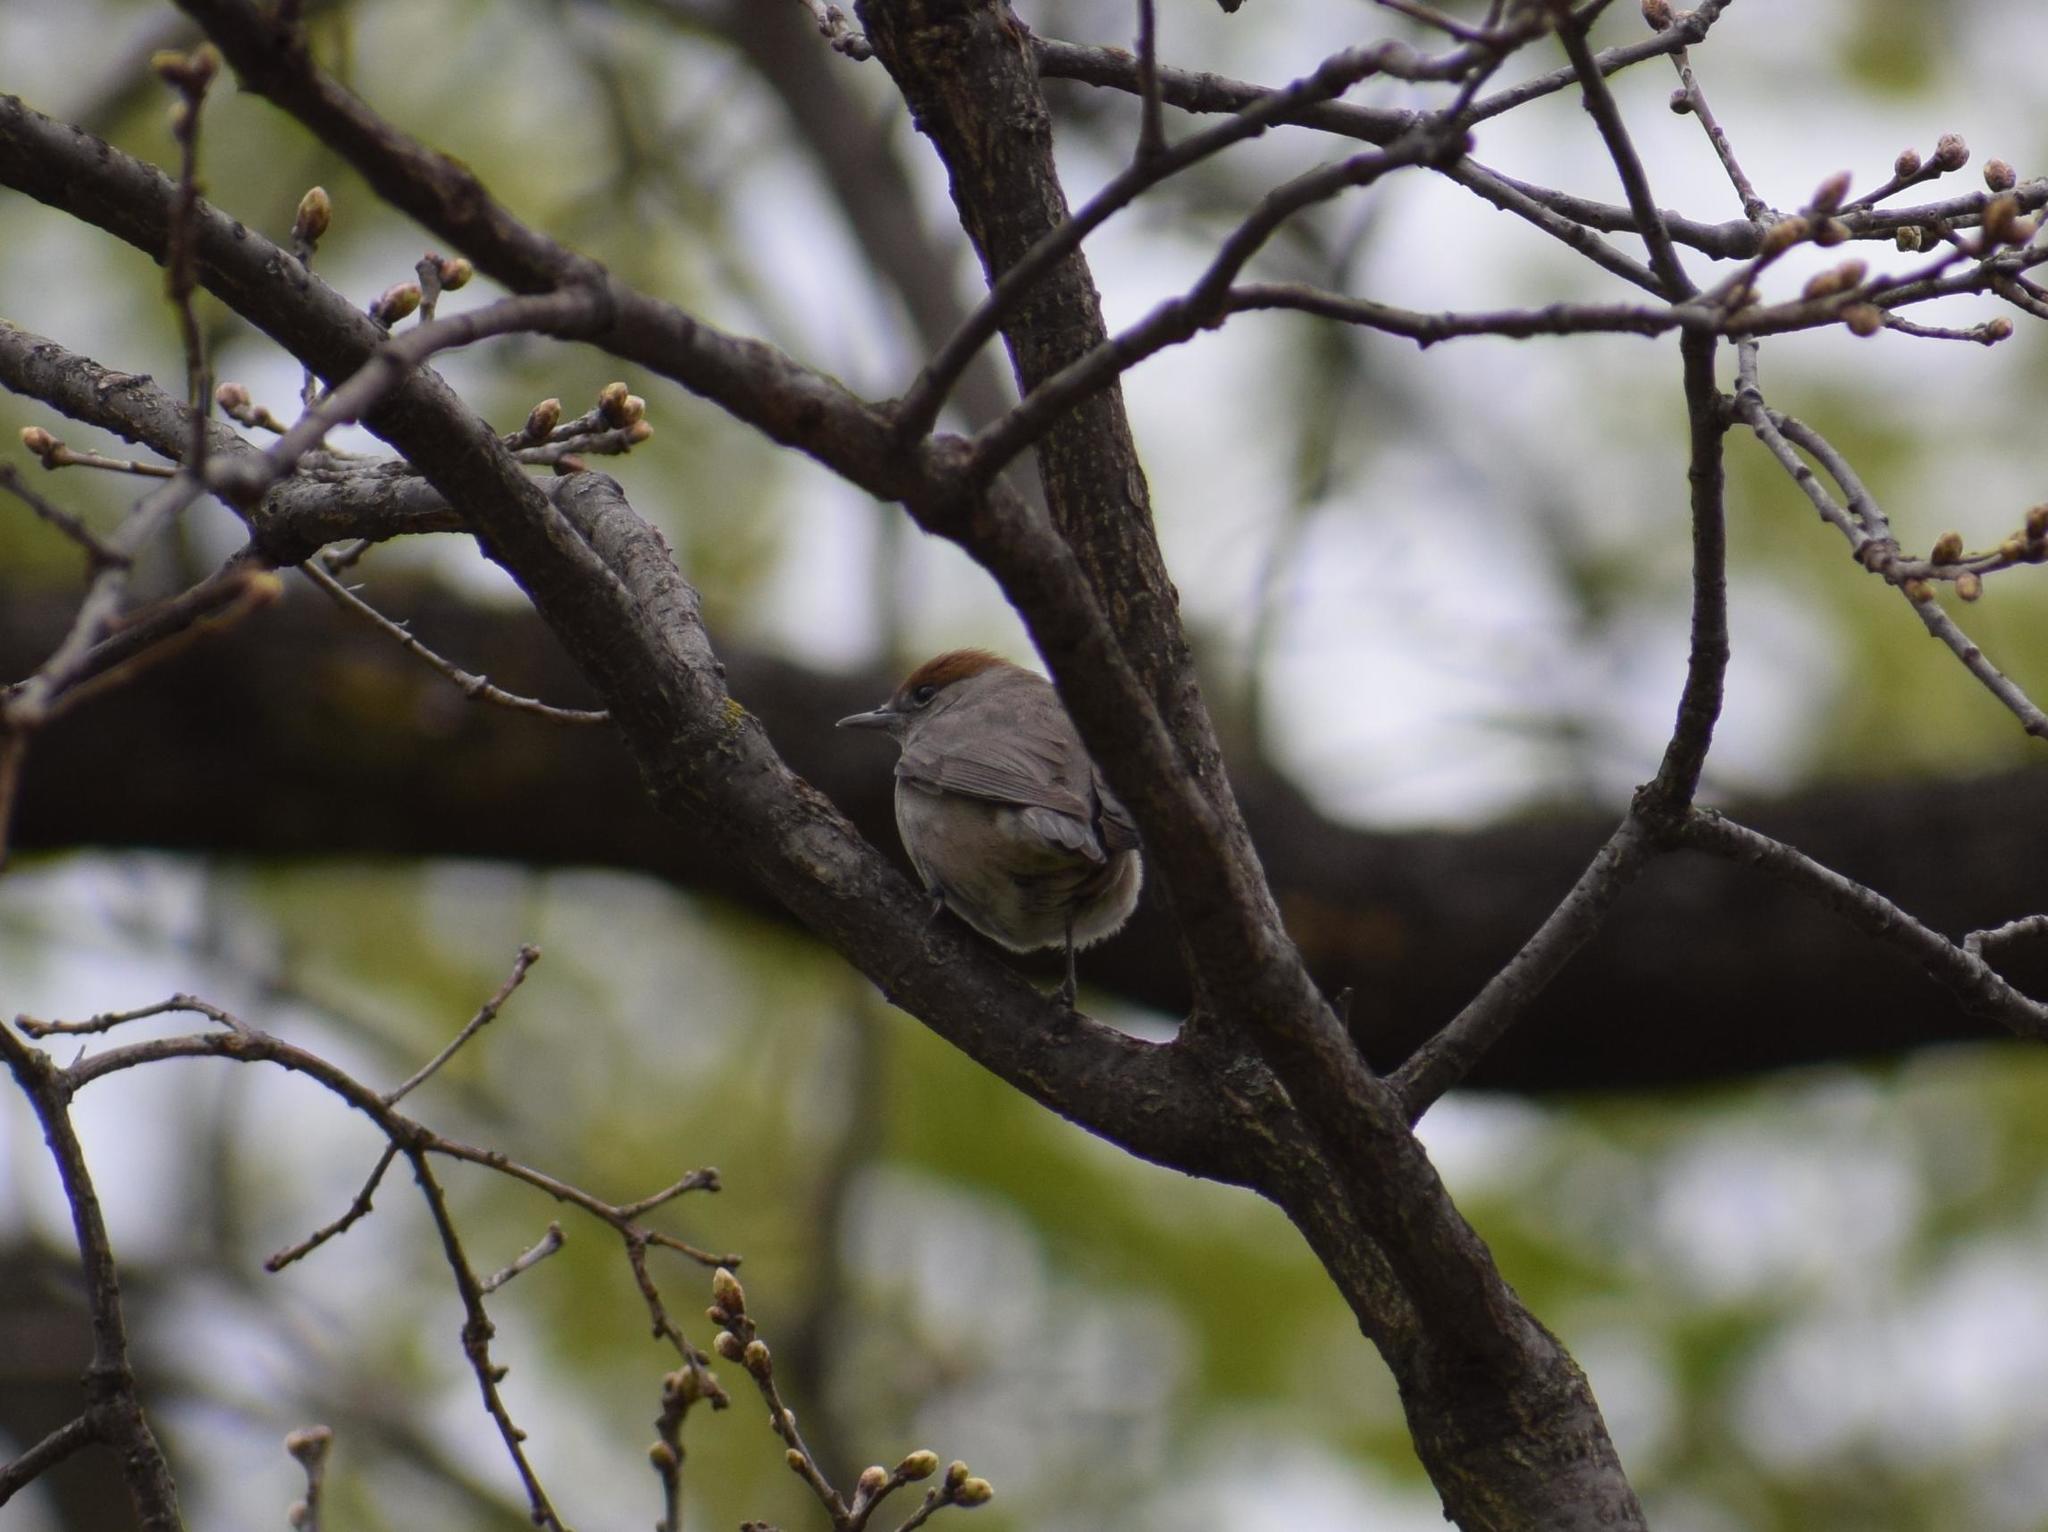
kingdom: Animalia
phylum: Chordata
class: Aves
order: Passeriformes
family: Sylviidae
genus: Sylvia
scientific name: Sylvia atricapilla
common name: Eurasian blackcap
